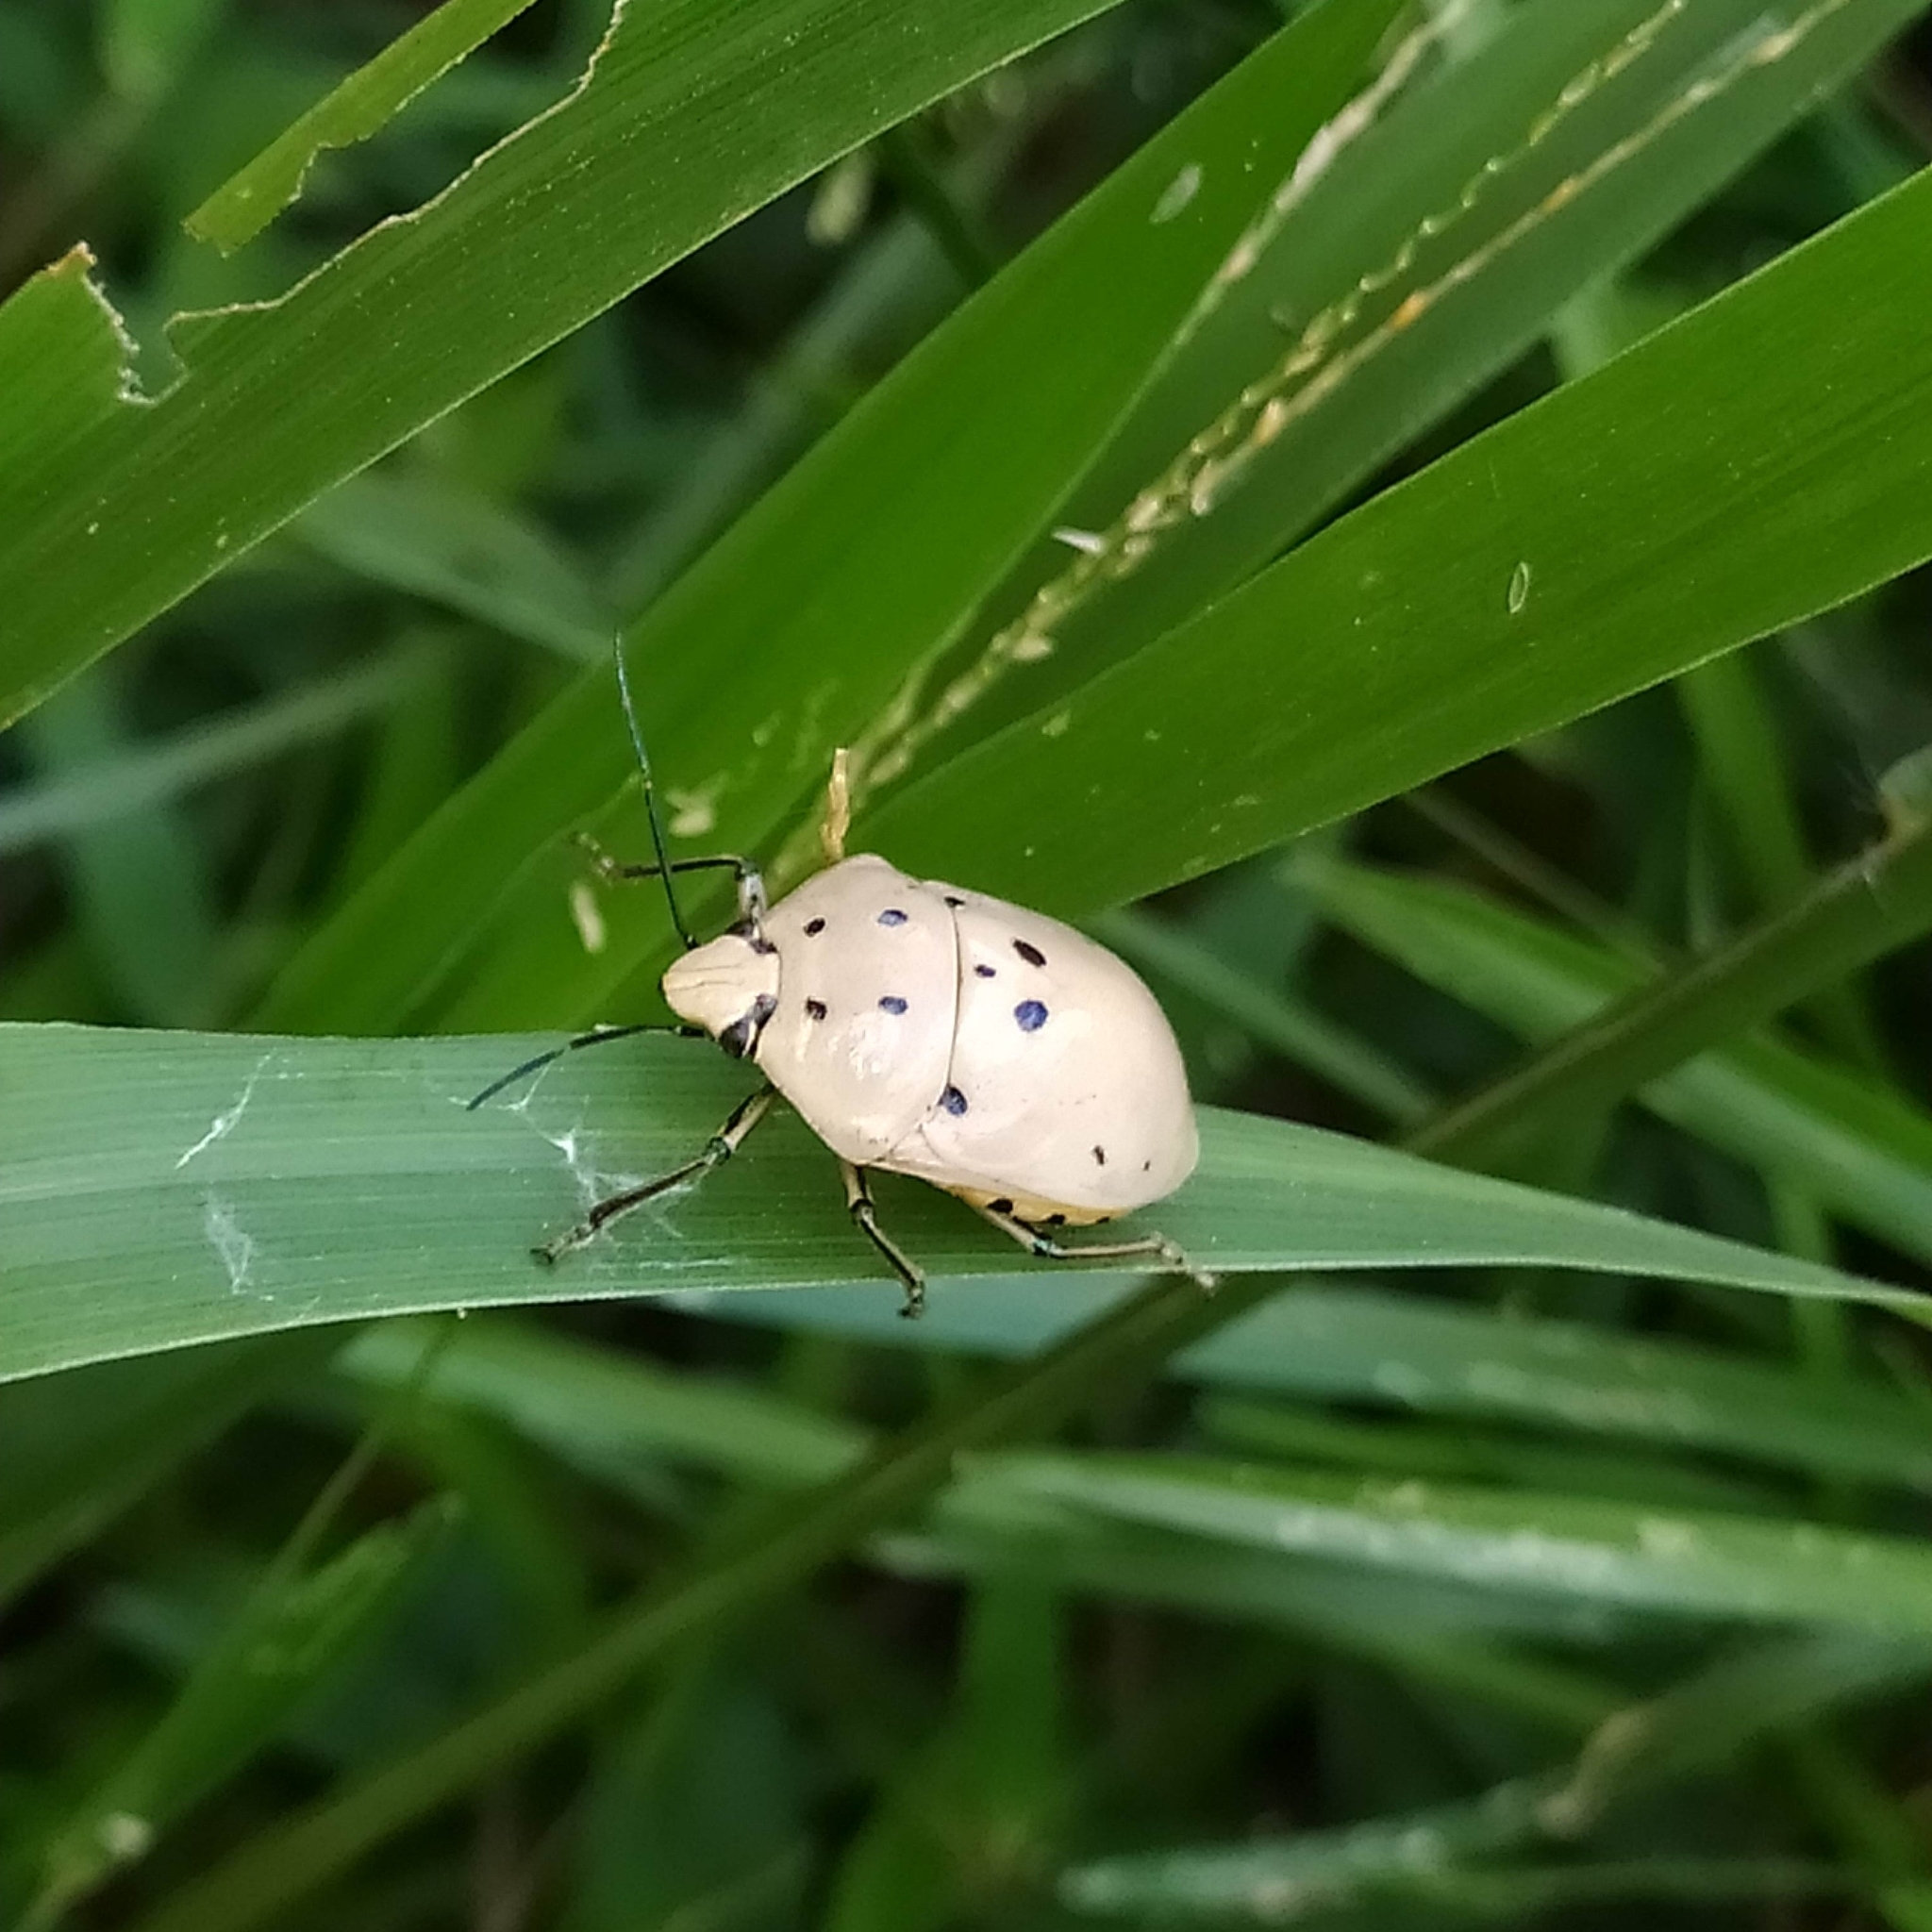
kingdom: Animalia
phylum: Arthropoda
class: Insecta
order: Hemiptera
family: Scutelleridae
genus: Augocoris
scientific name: Augocoris gomesii
